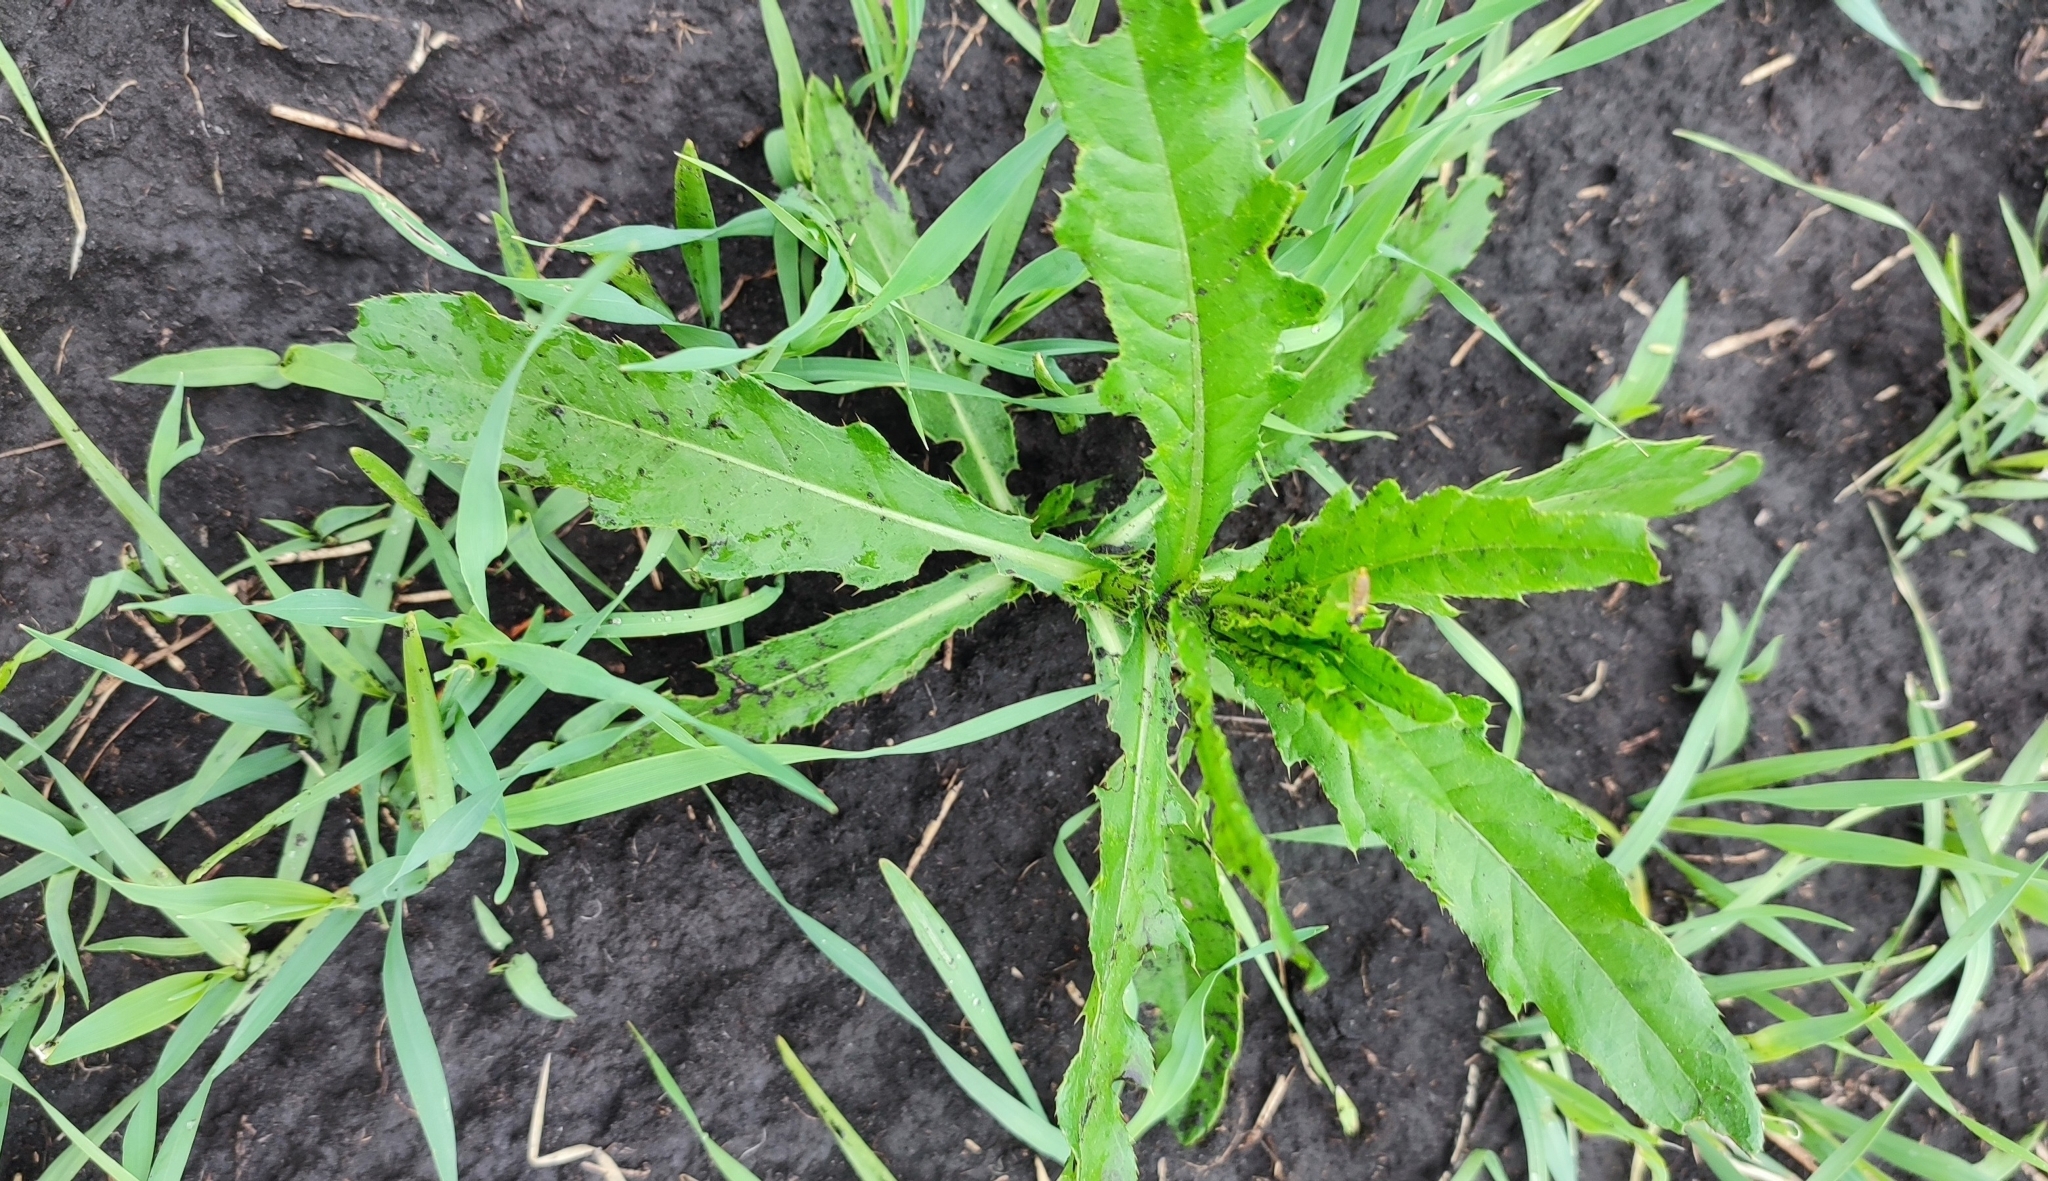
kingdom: Plantae
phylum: Tracheophyta
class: Magnoliopsida
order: Asterales
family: Asteraceae
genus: Cirsium
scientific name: Cirsium arvense
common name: Creeping thistle
